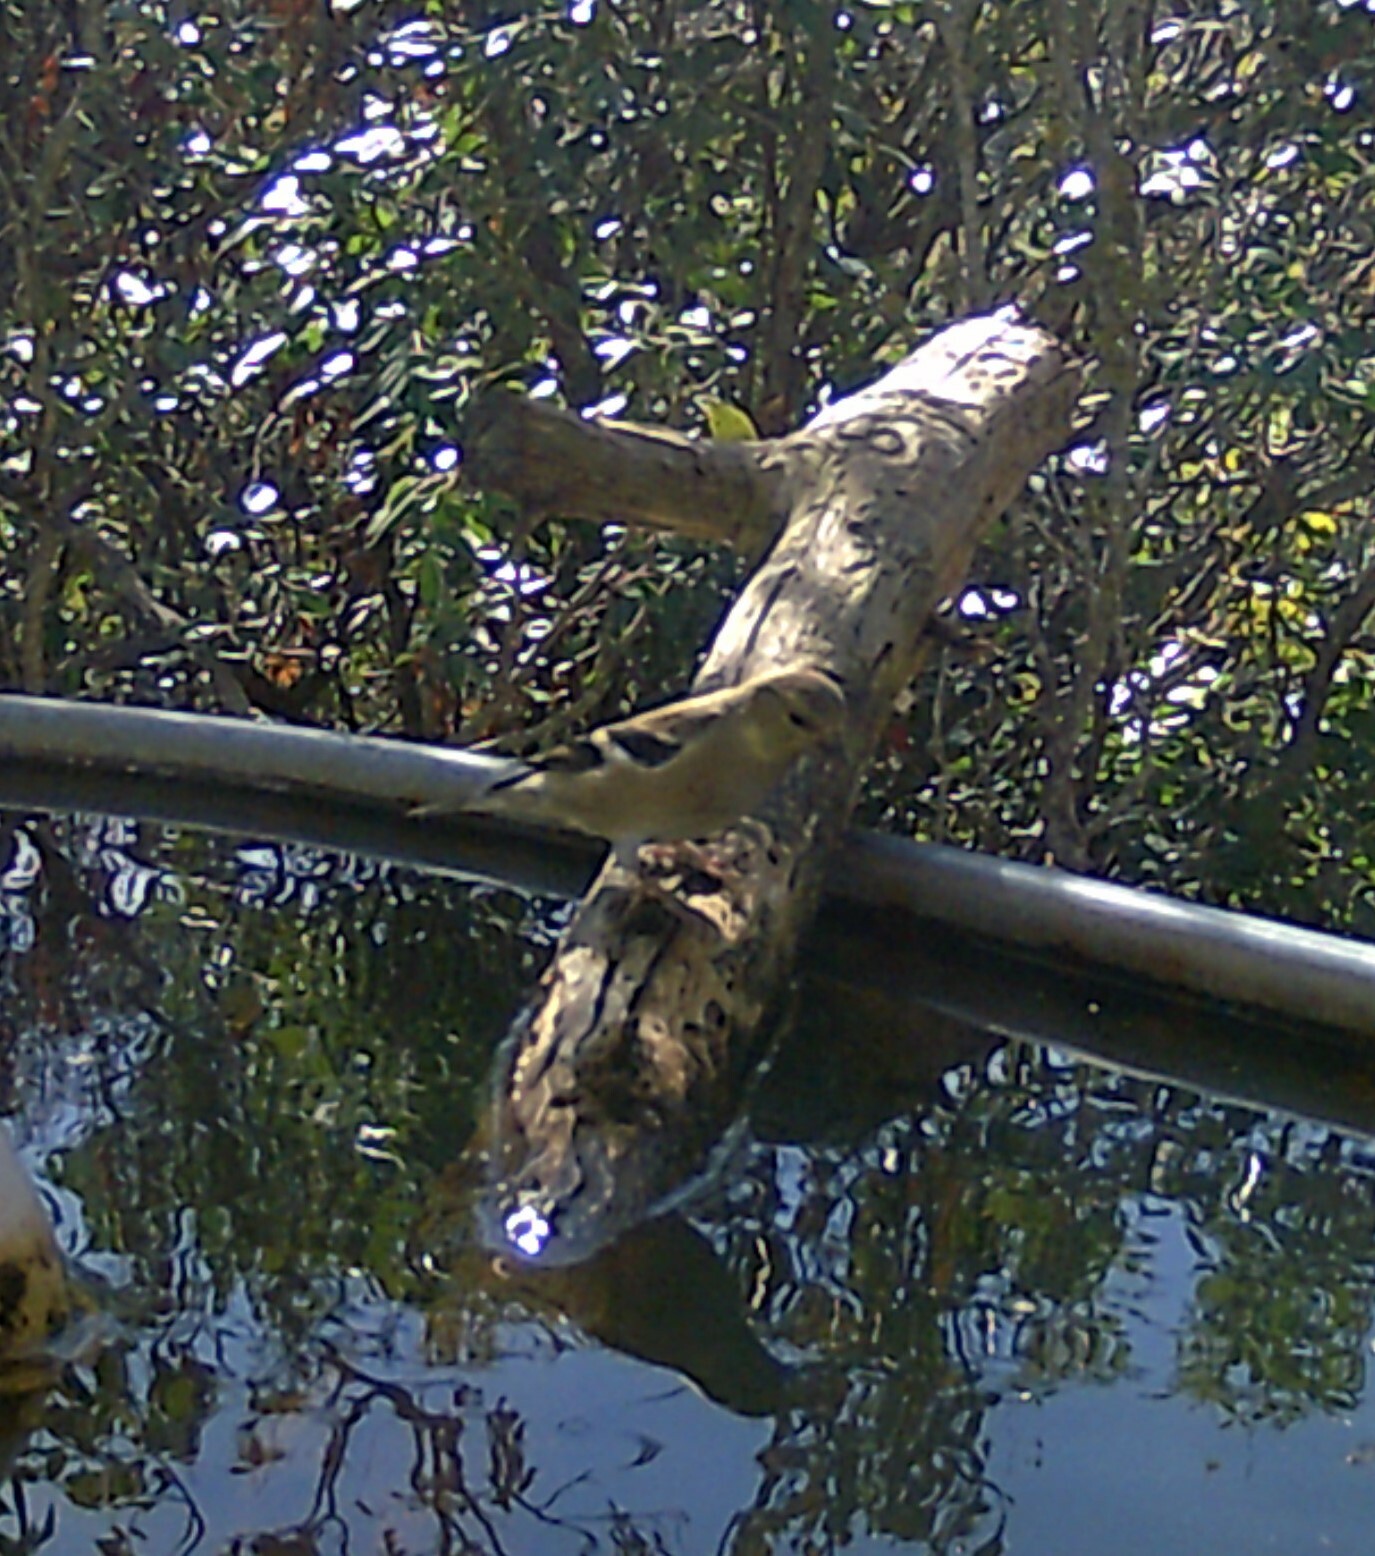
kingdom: Animalia
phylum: Chordata
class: Aves
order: Passeriformes
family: Fringillidae
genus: Spinus
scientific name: Spinus tristis
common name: American goldfinch
